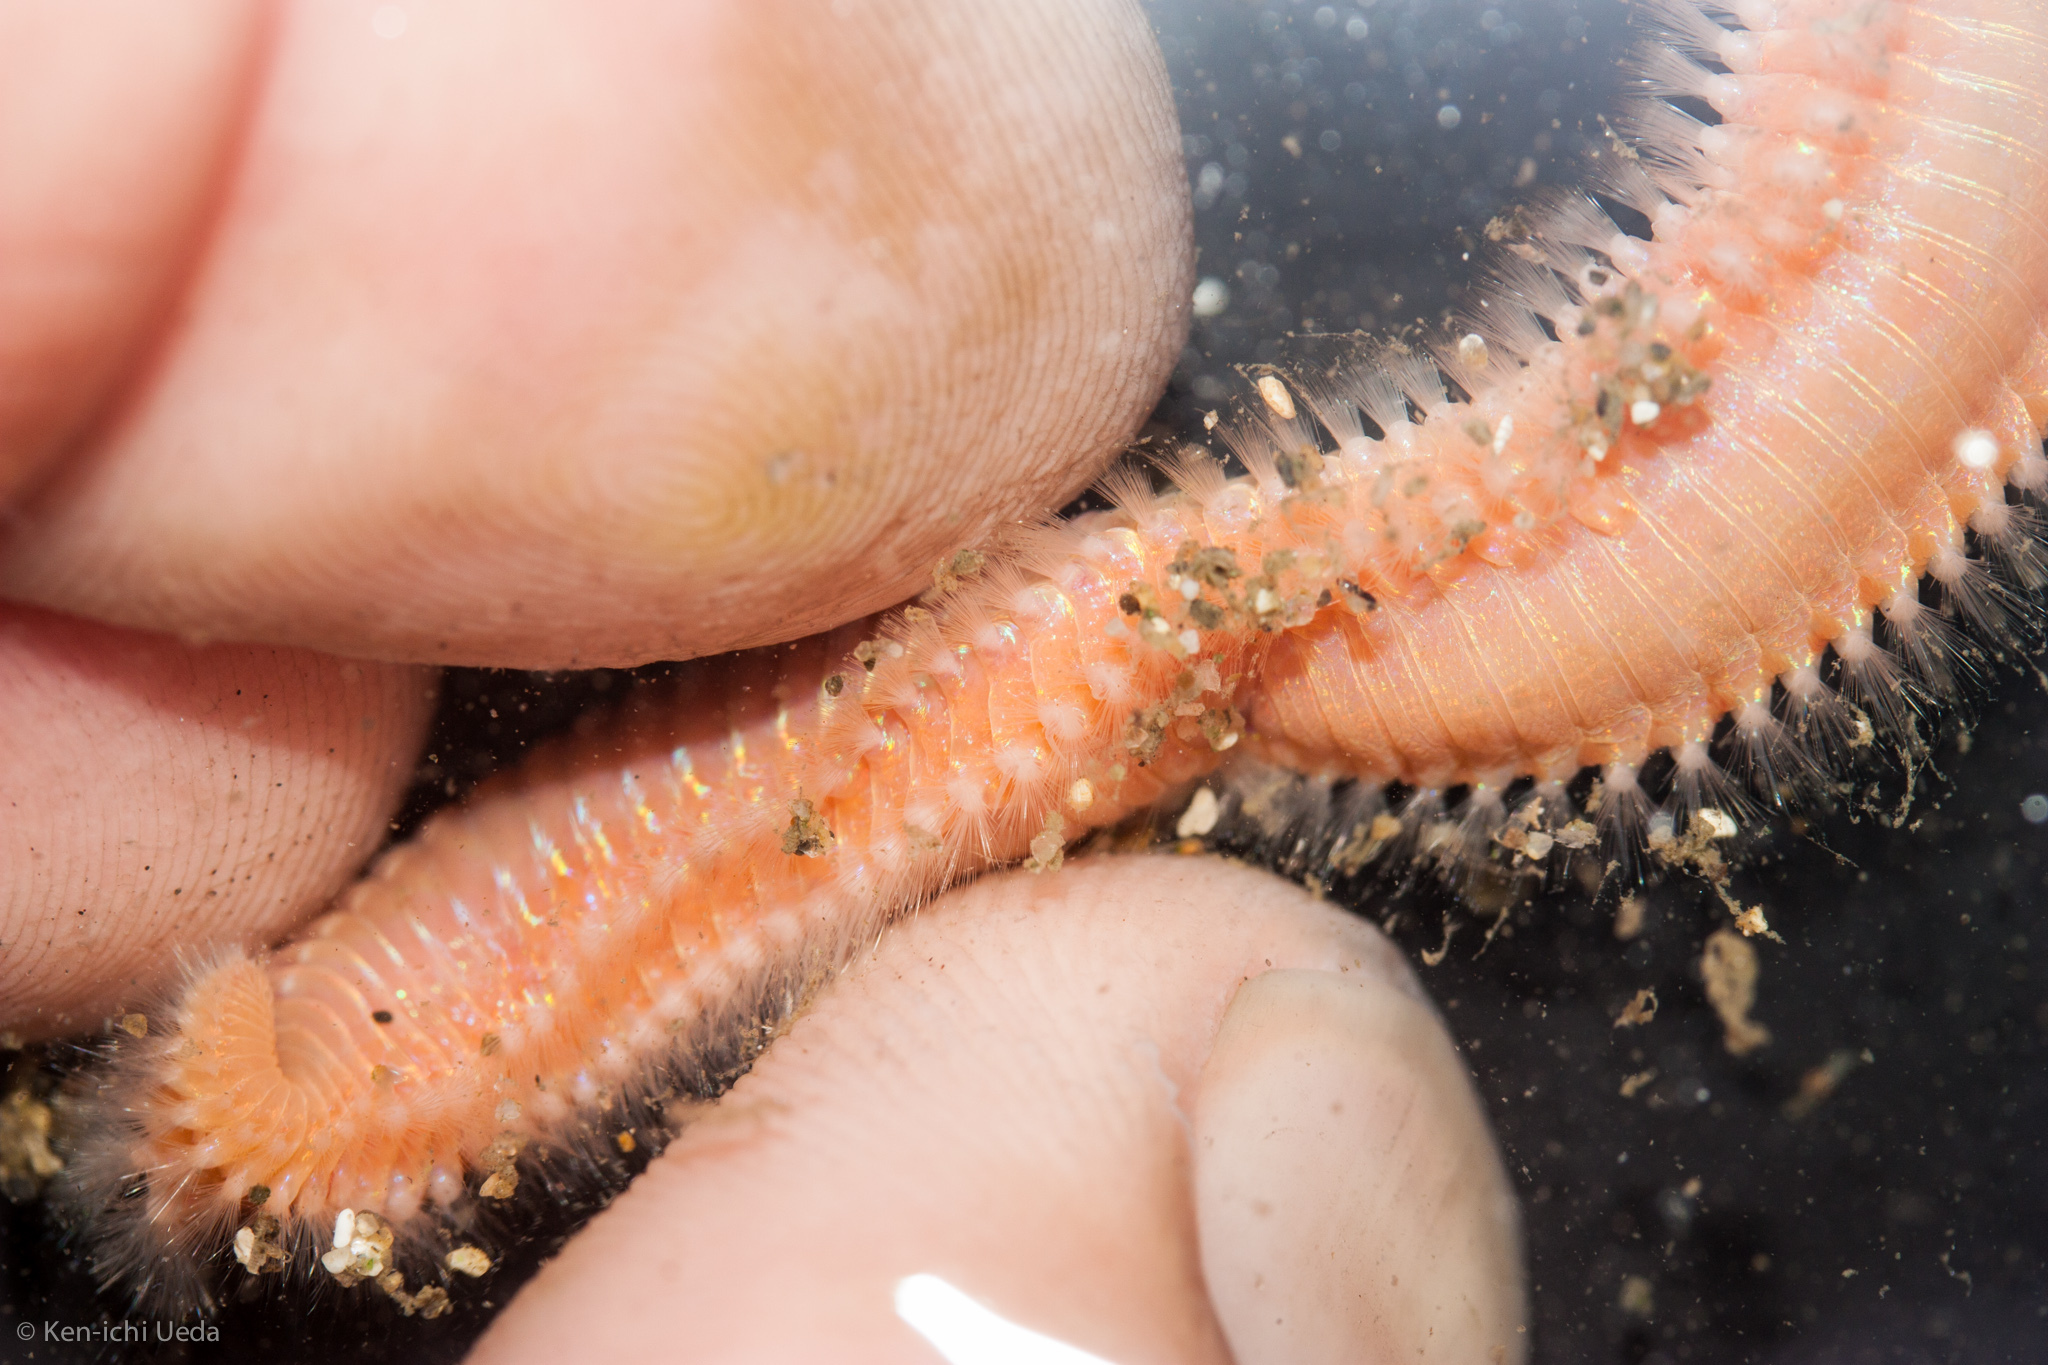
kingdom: Animalia
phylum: Annelida
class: Polychaeta
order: Amphinomida
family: Amphinomidae
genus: Pareurythoe
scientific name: Pareurythoe californica
